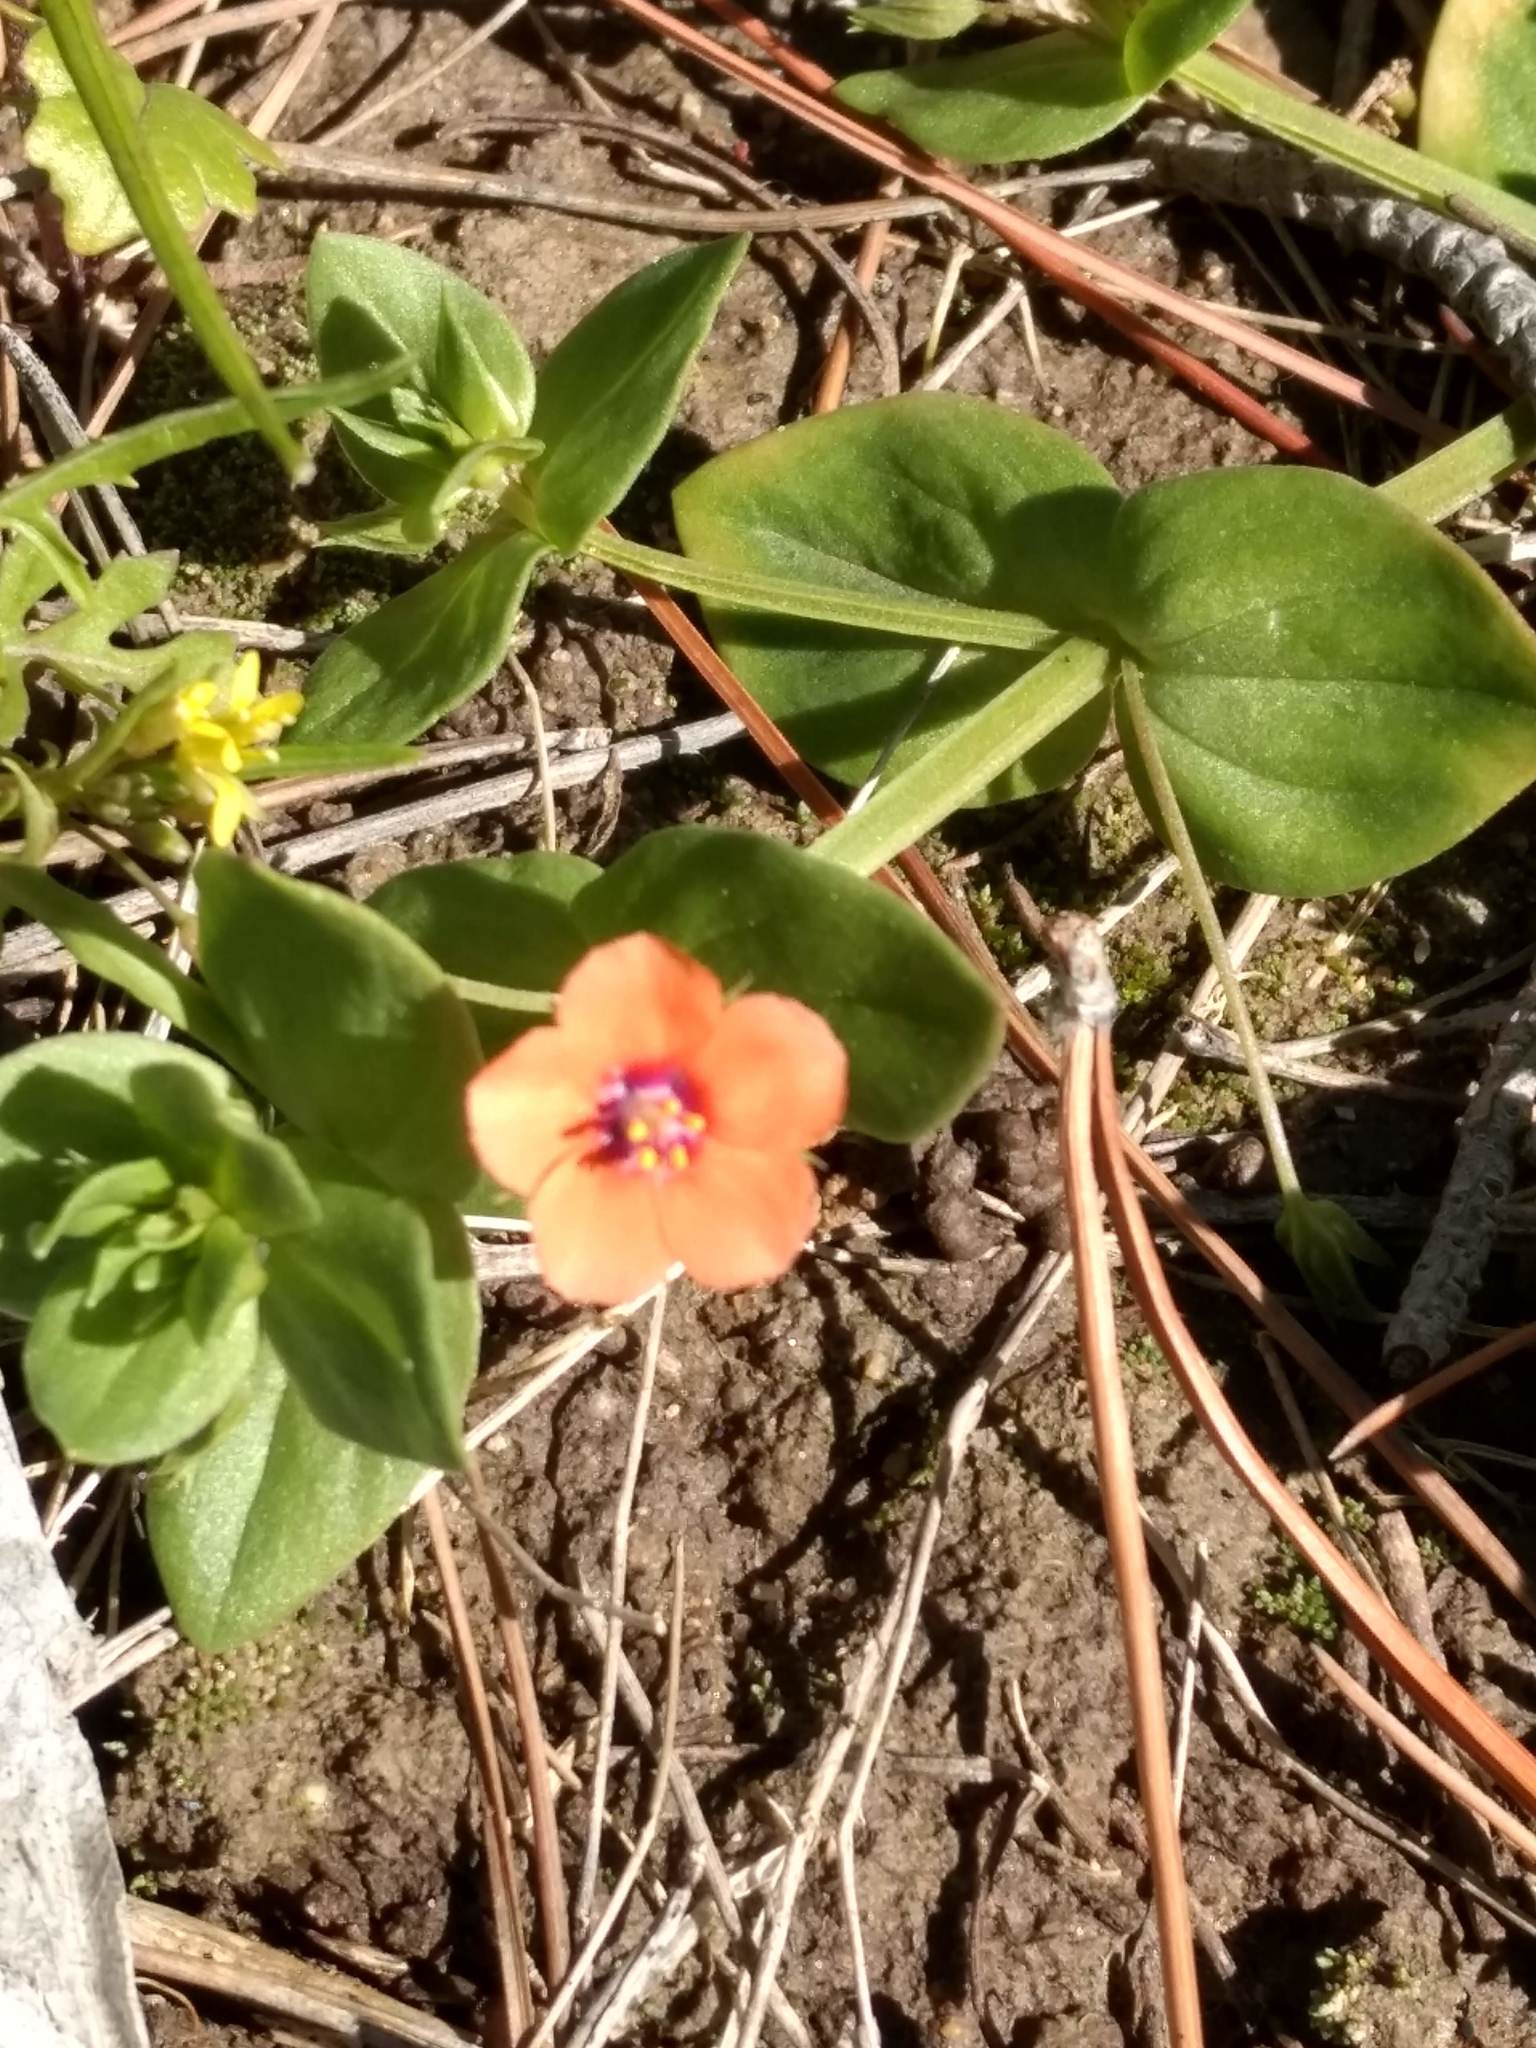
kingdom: Plantae
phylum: Tracheophyta
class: Magnoliopsida
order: Ericales
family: Primulaceae
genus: Lysimachia
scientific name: Lysimachia arvensis
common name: Scarlet pimpernel
